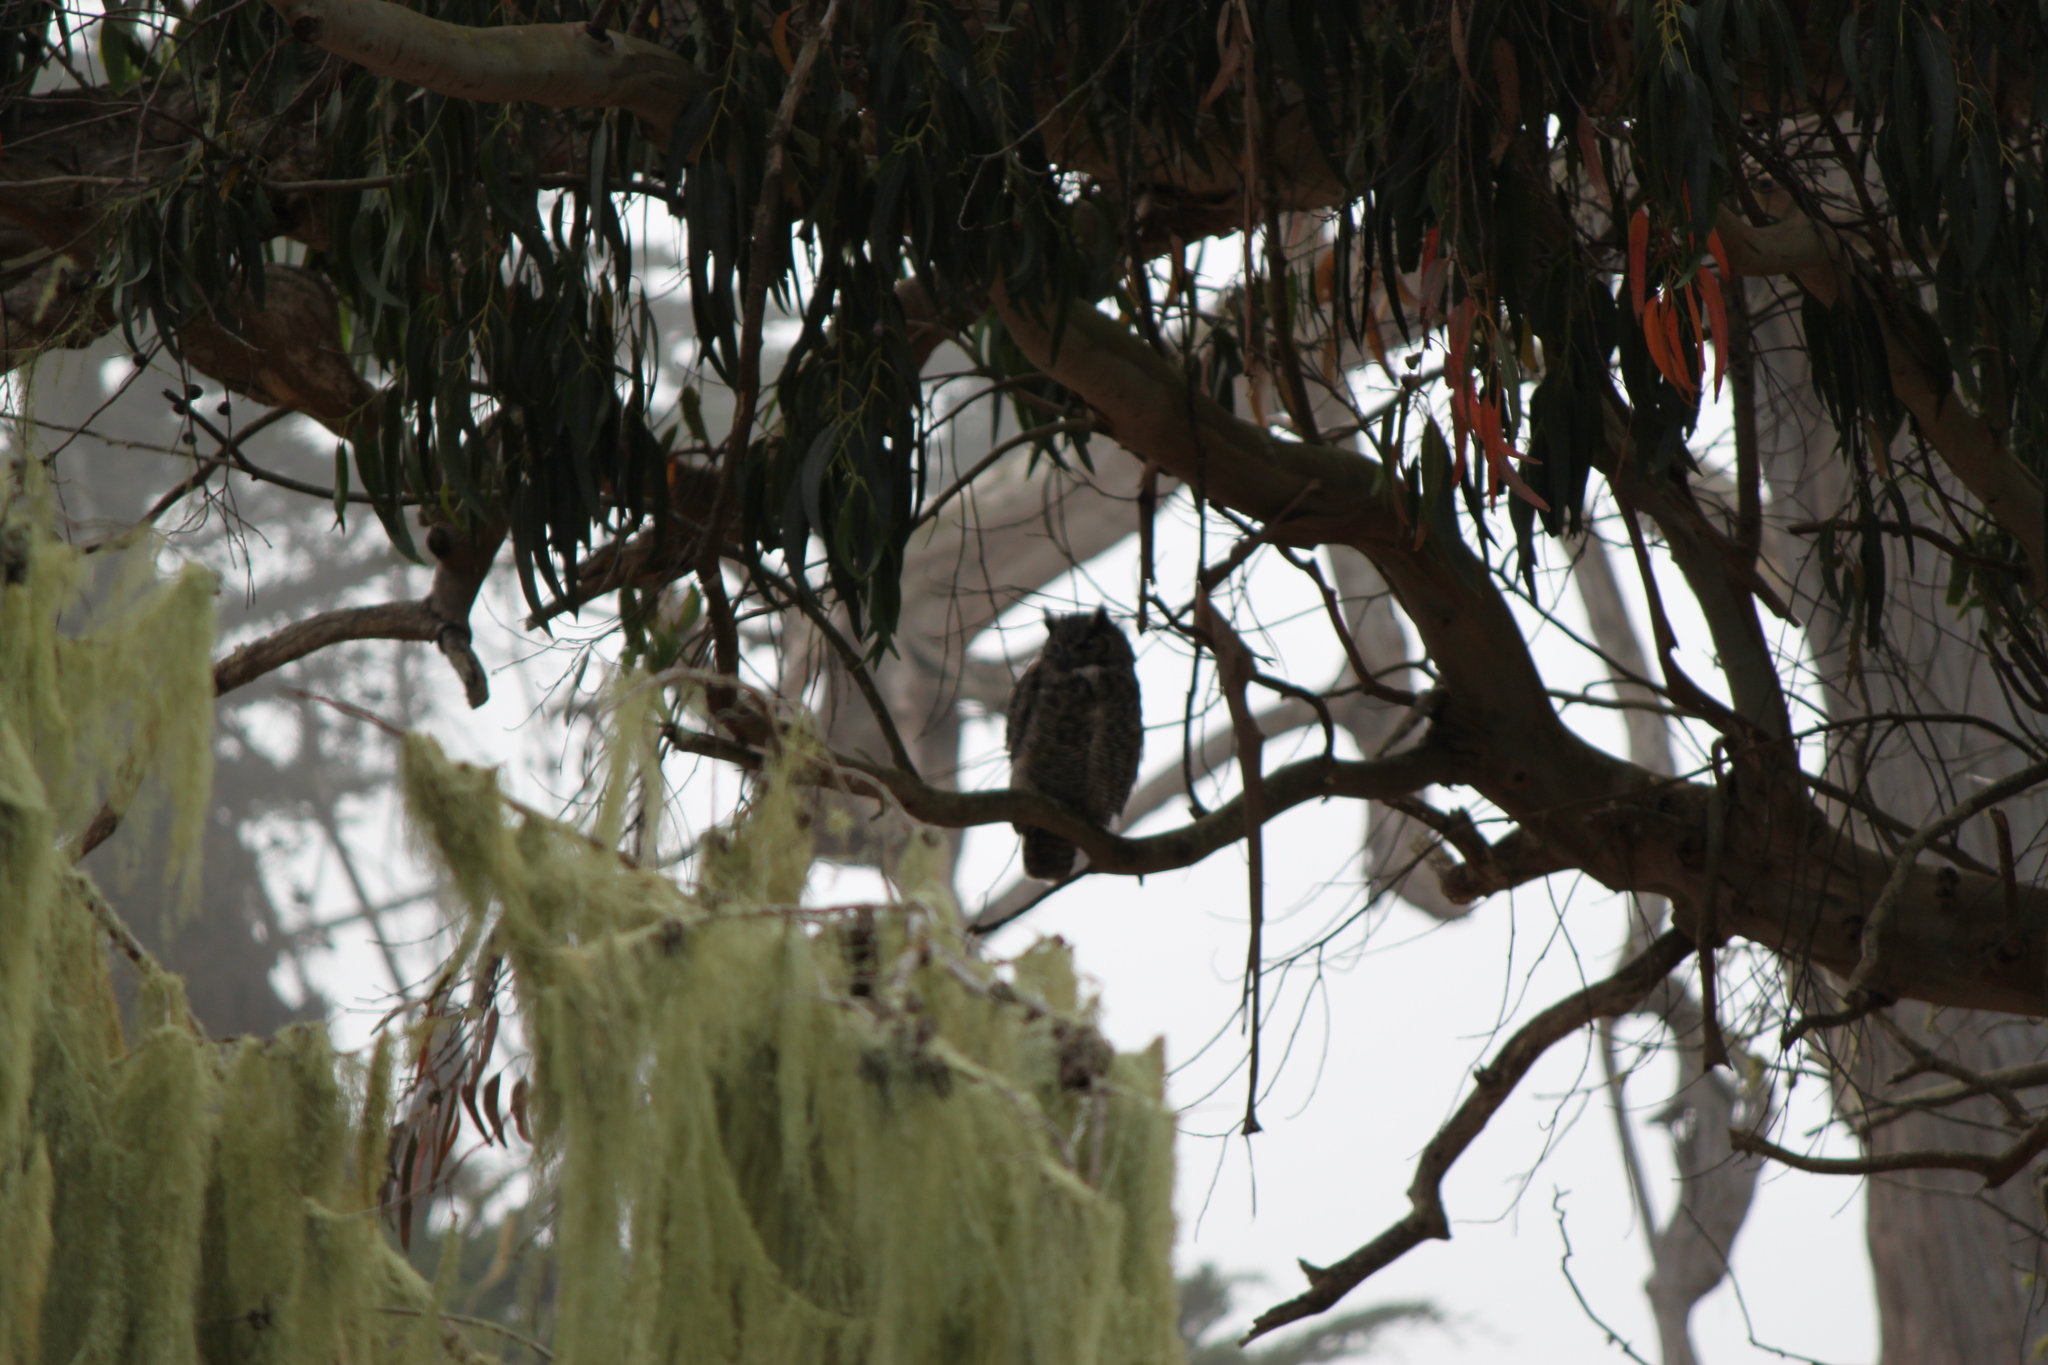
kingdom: Animalia
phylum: Chordata
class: Aves
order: Strigiformes
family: Strigidae
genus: Bubo
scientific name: Bubo virginianus
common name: Great horned owl
